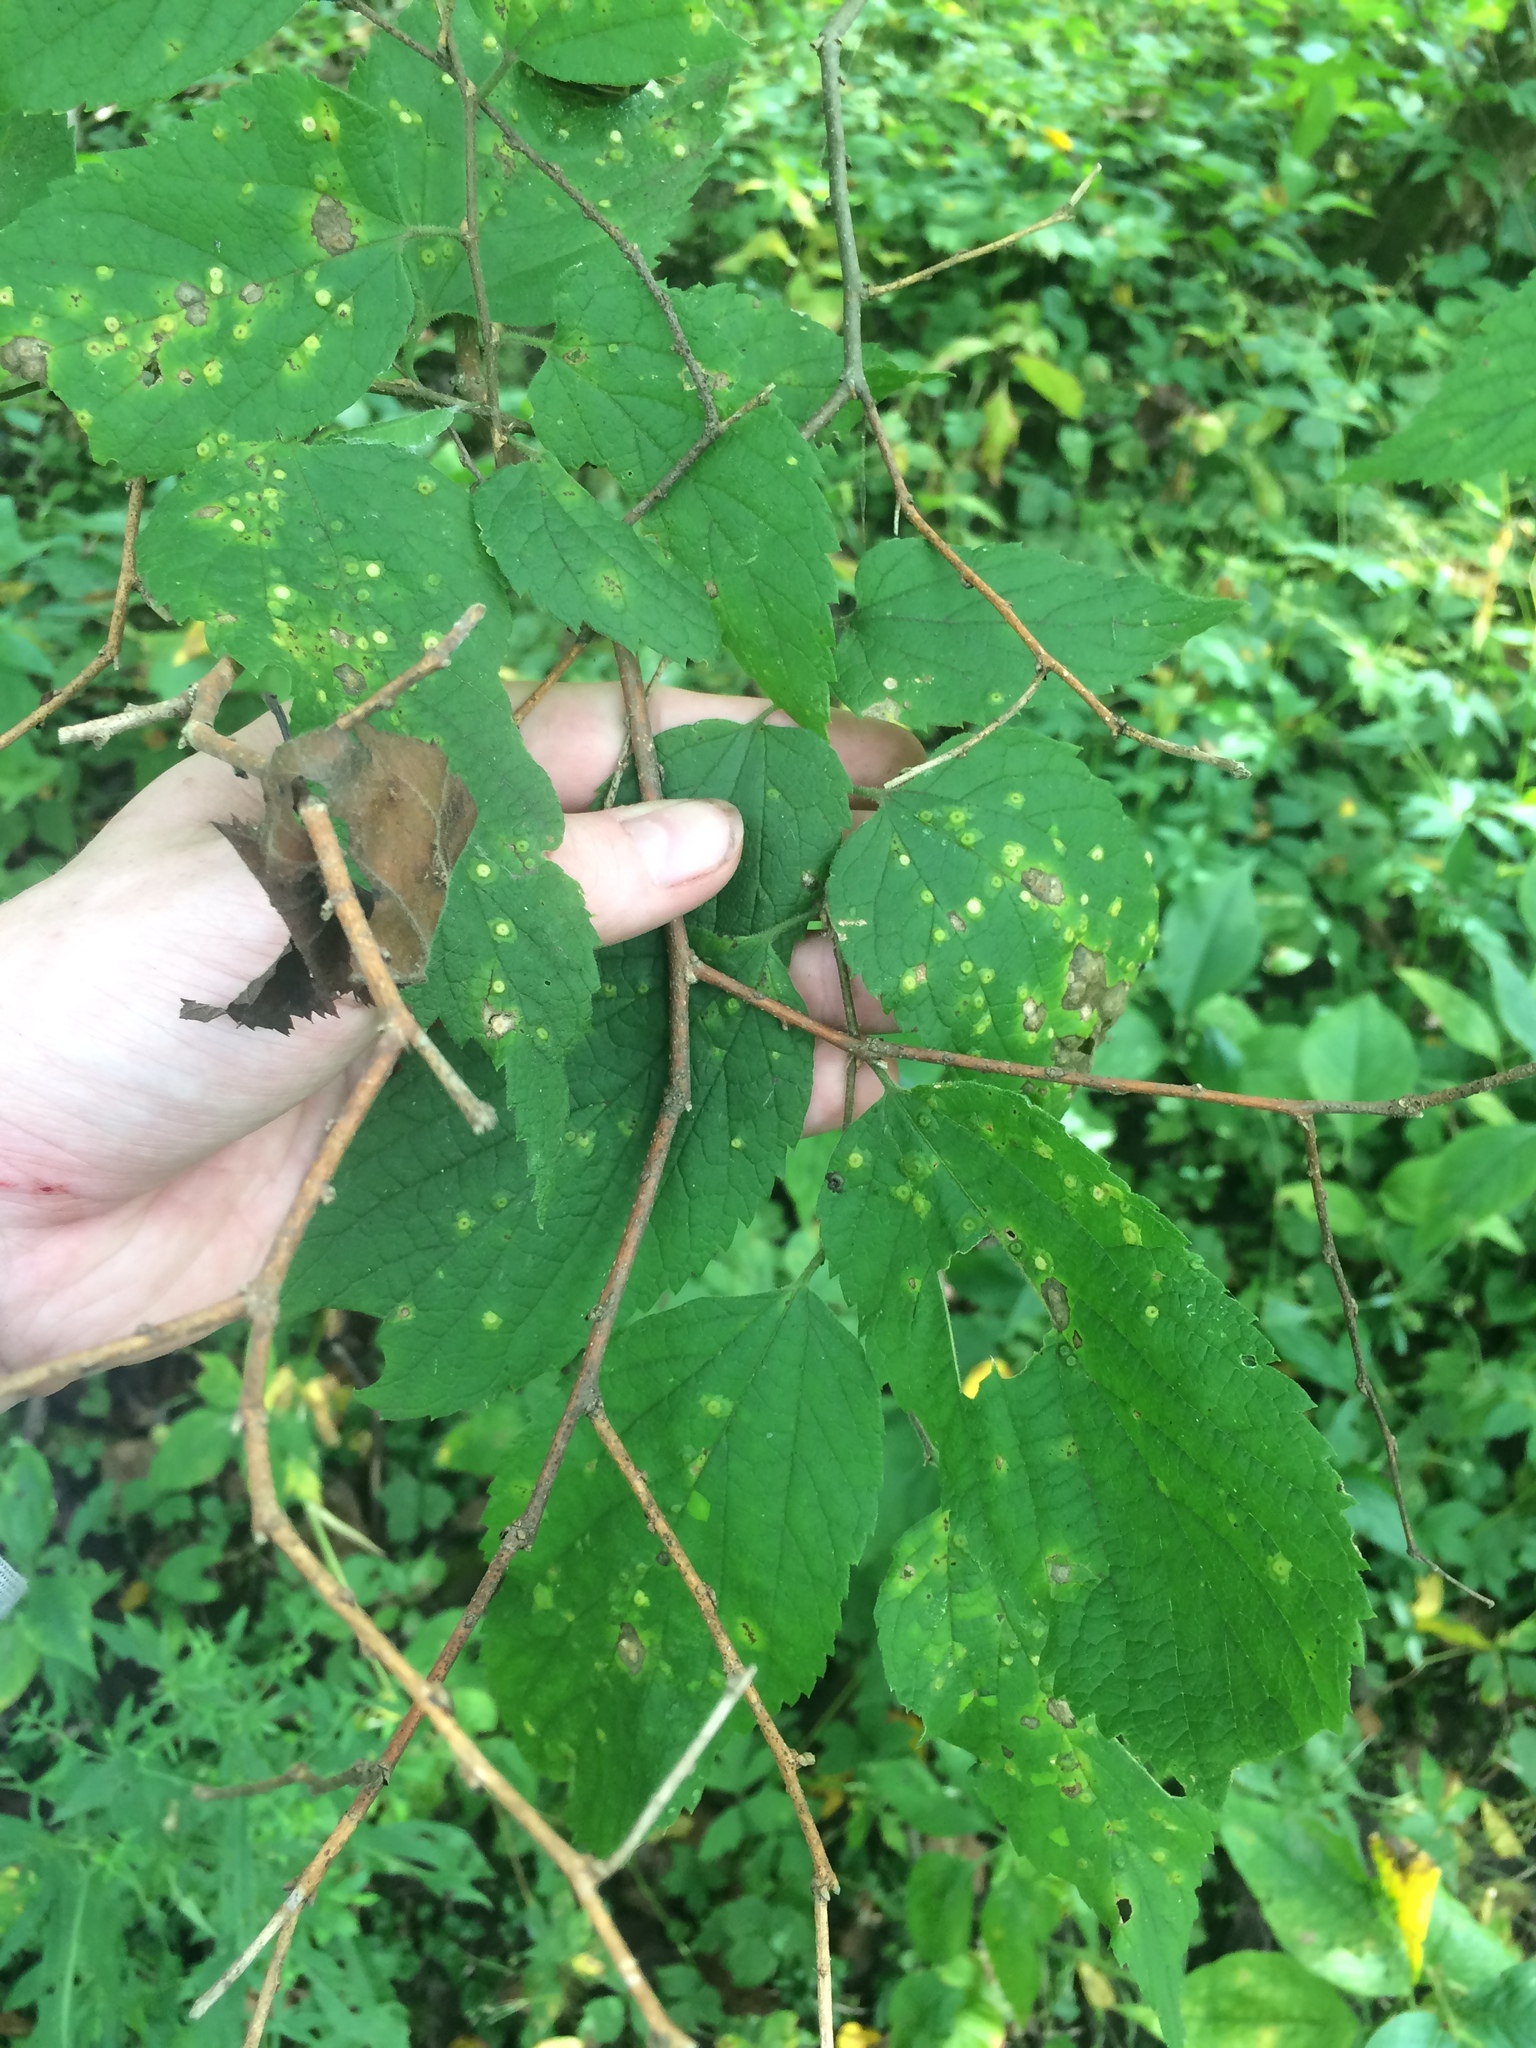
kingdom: Plantae
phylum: Tracheophyta
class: Magnoliopsida
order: Rosales
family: Cannabaceae
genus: Celtis
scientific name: Celtis occidentalis
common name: Common hackberry
